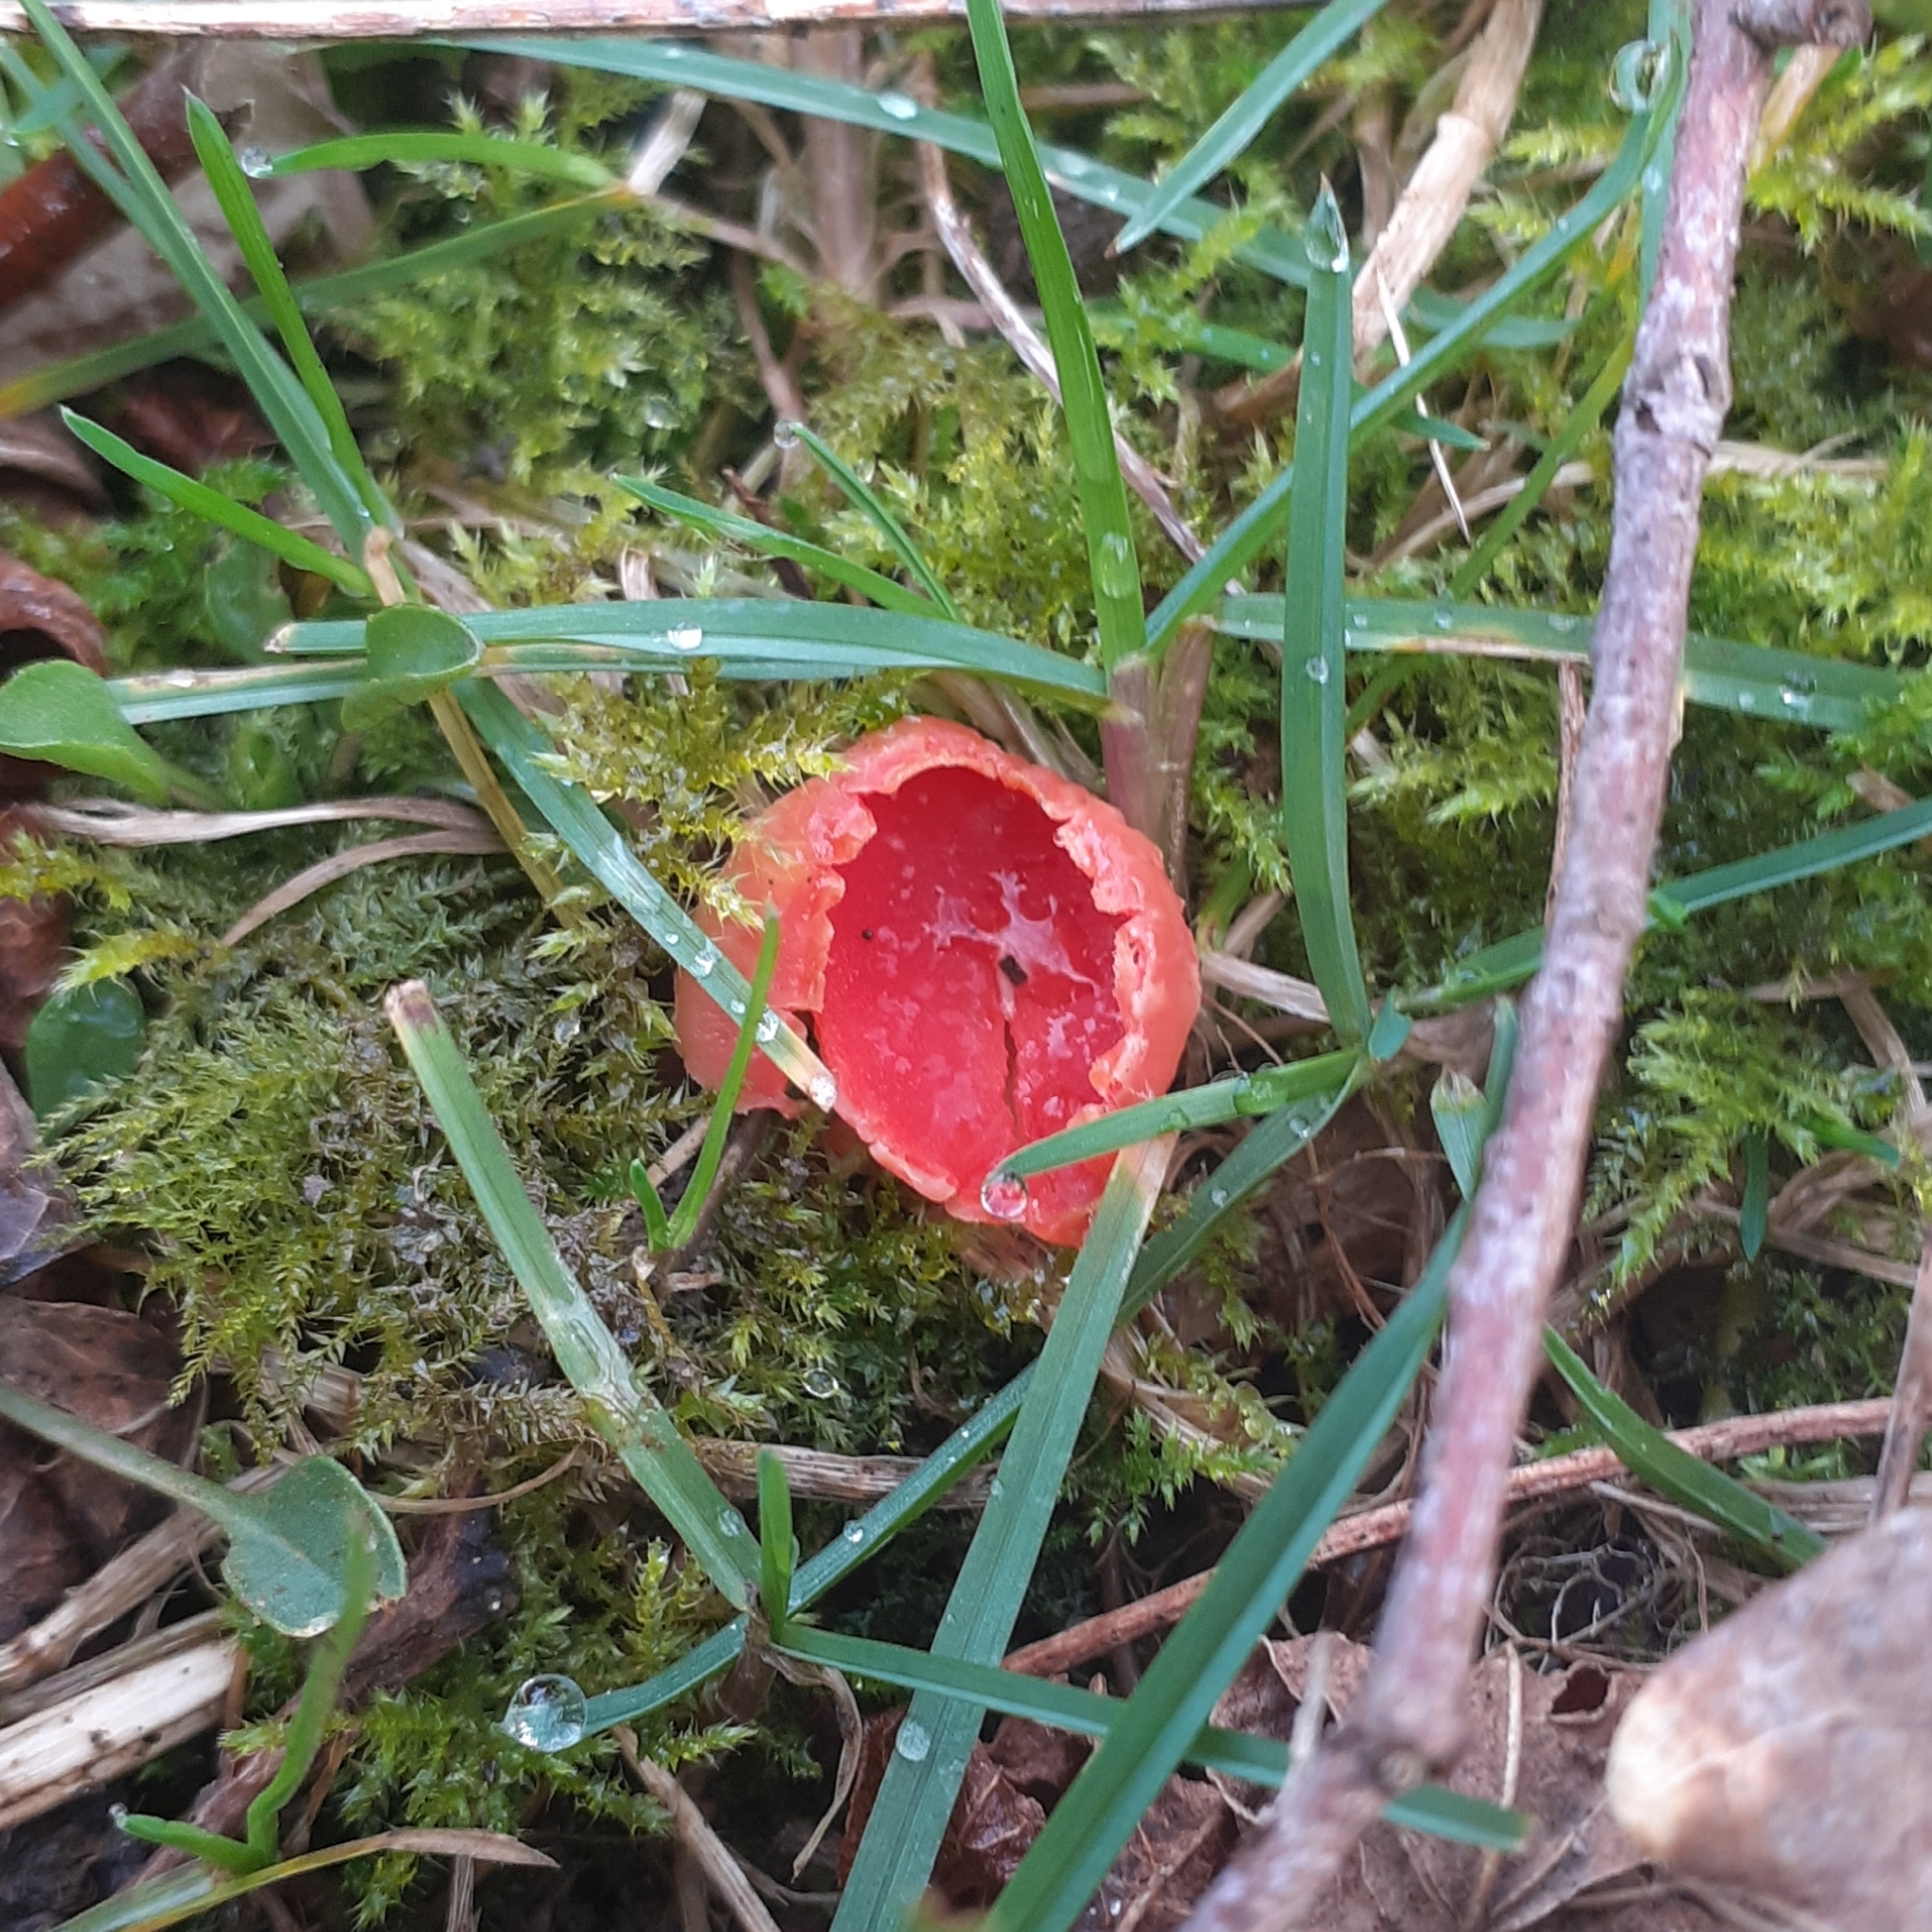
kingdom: Fungi
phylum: Ascomycota
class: Pezizomycetes
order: Pezizales
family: Sarcoscyphaceae
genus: Sarcoscypha
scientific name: Sarcoscypha
